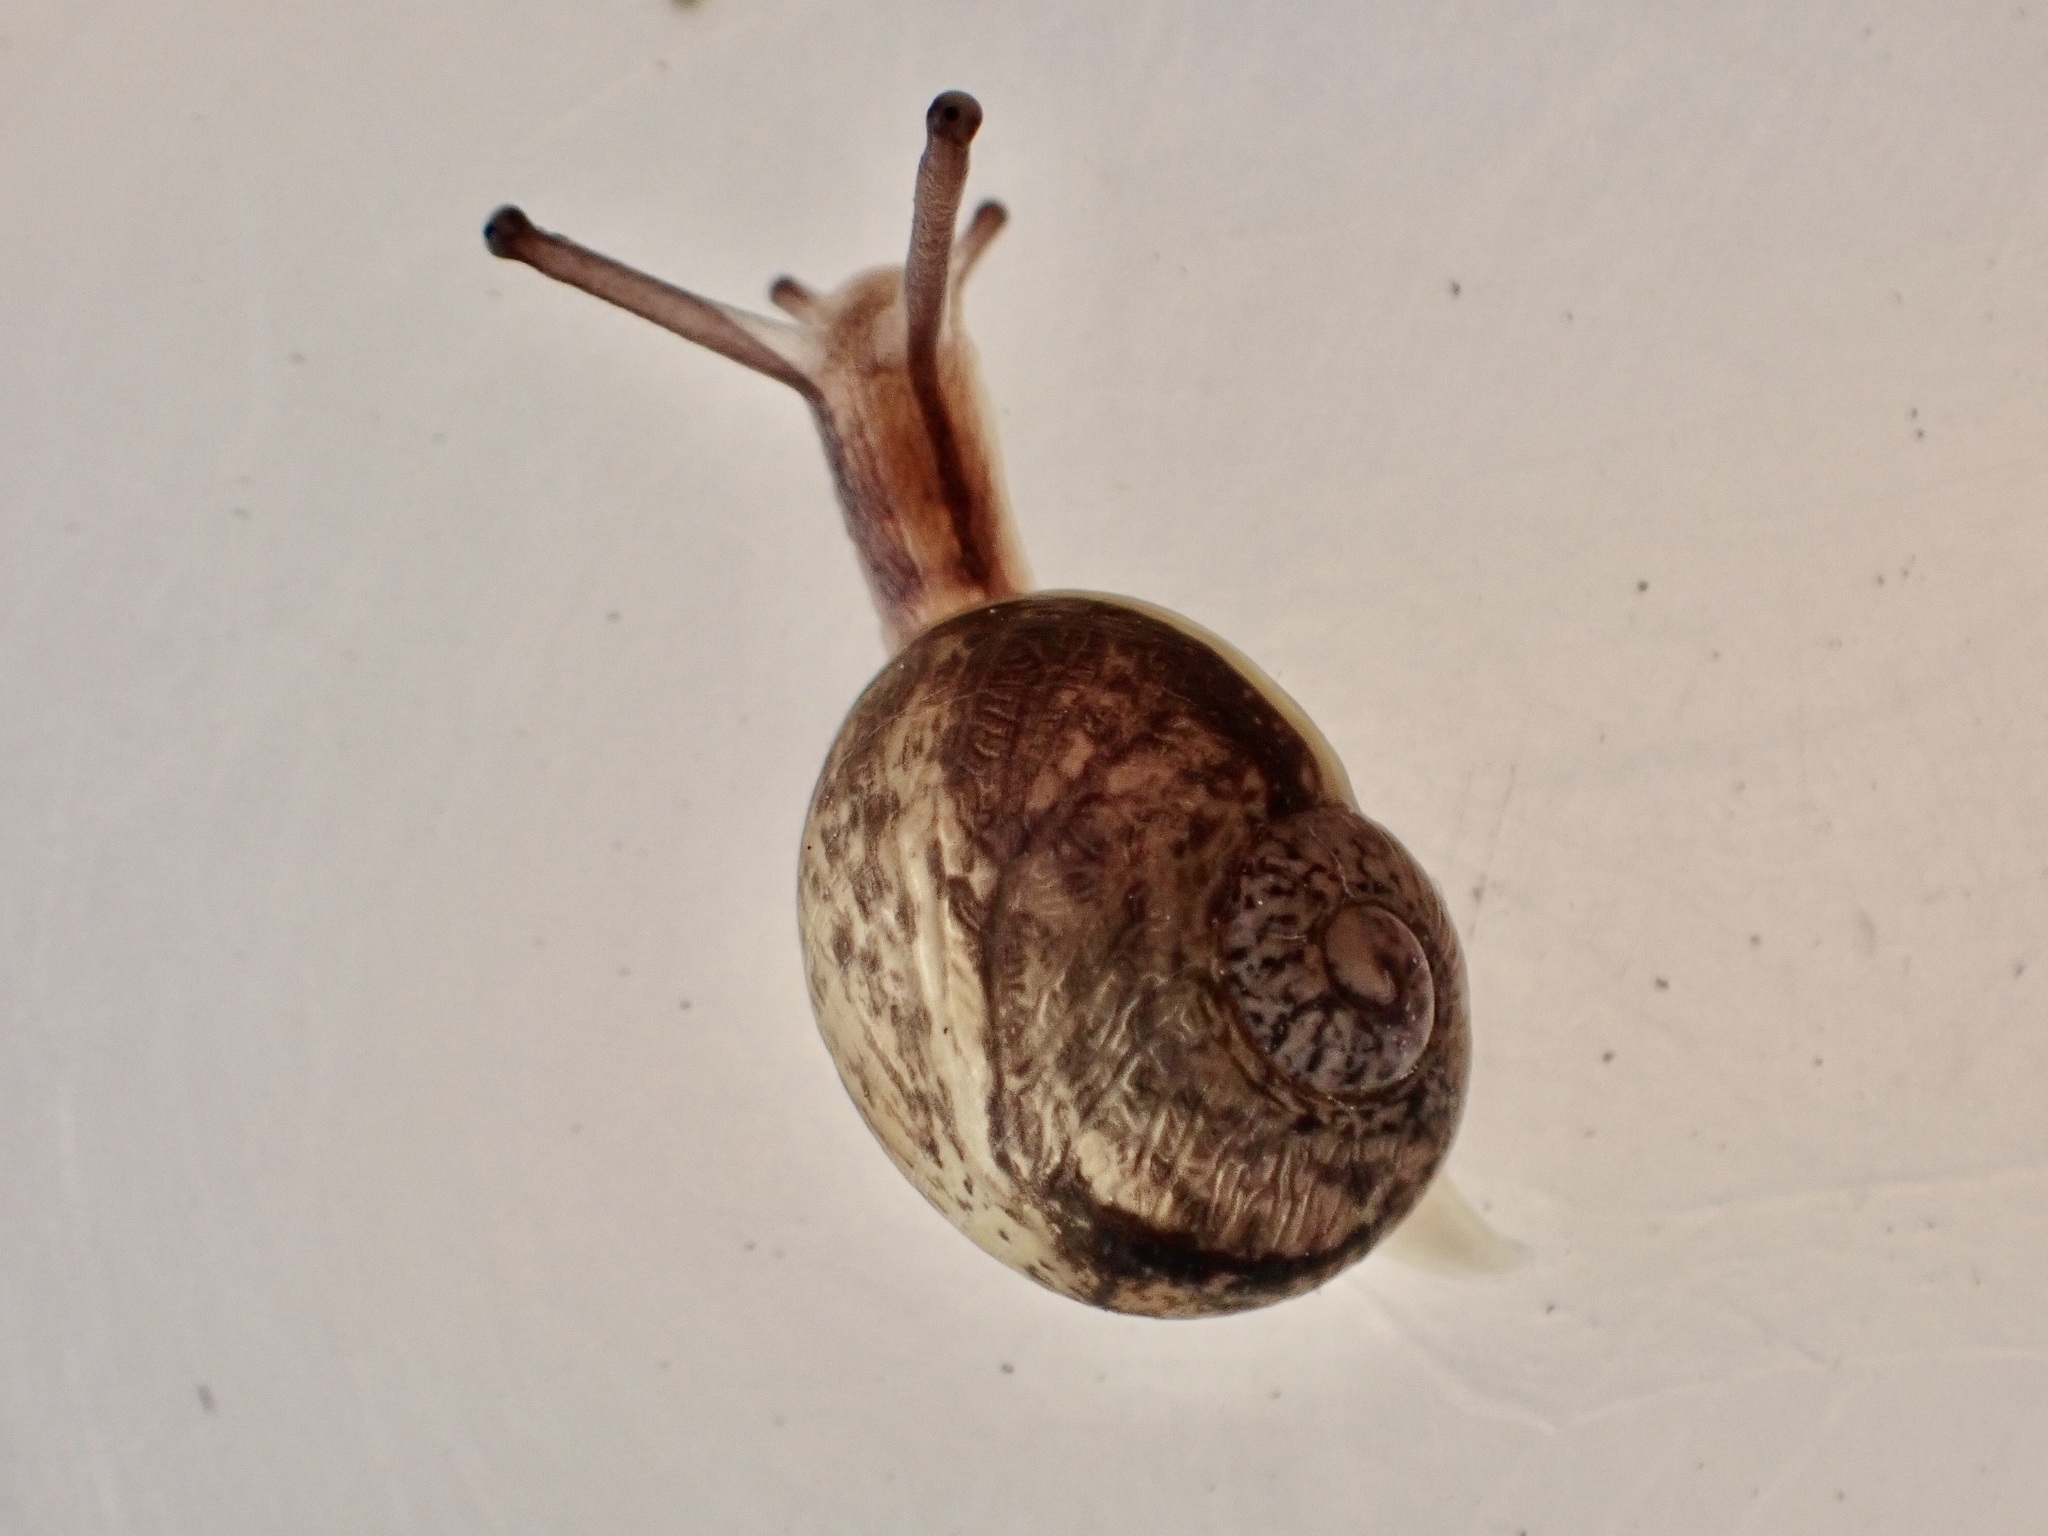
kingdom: Animalia
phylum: Mollusca
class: Gastropoda
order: Stylommatophora
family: Helicidae
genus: Cornu
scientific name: Cornu aspersum
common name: Brown garden snail
